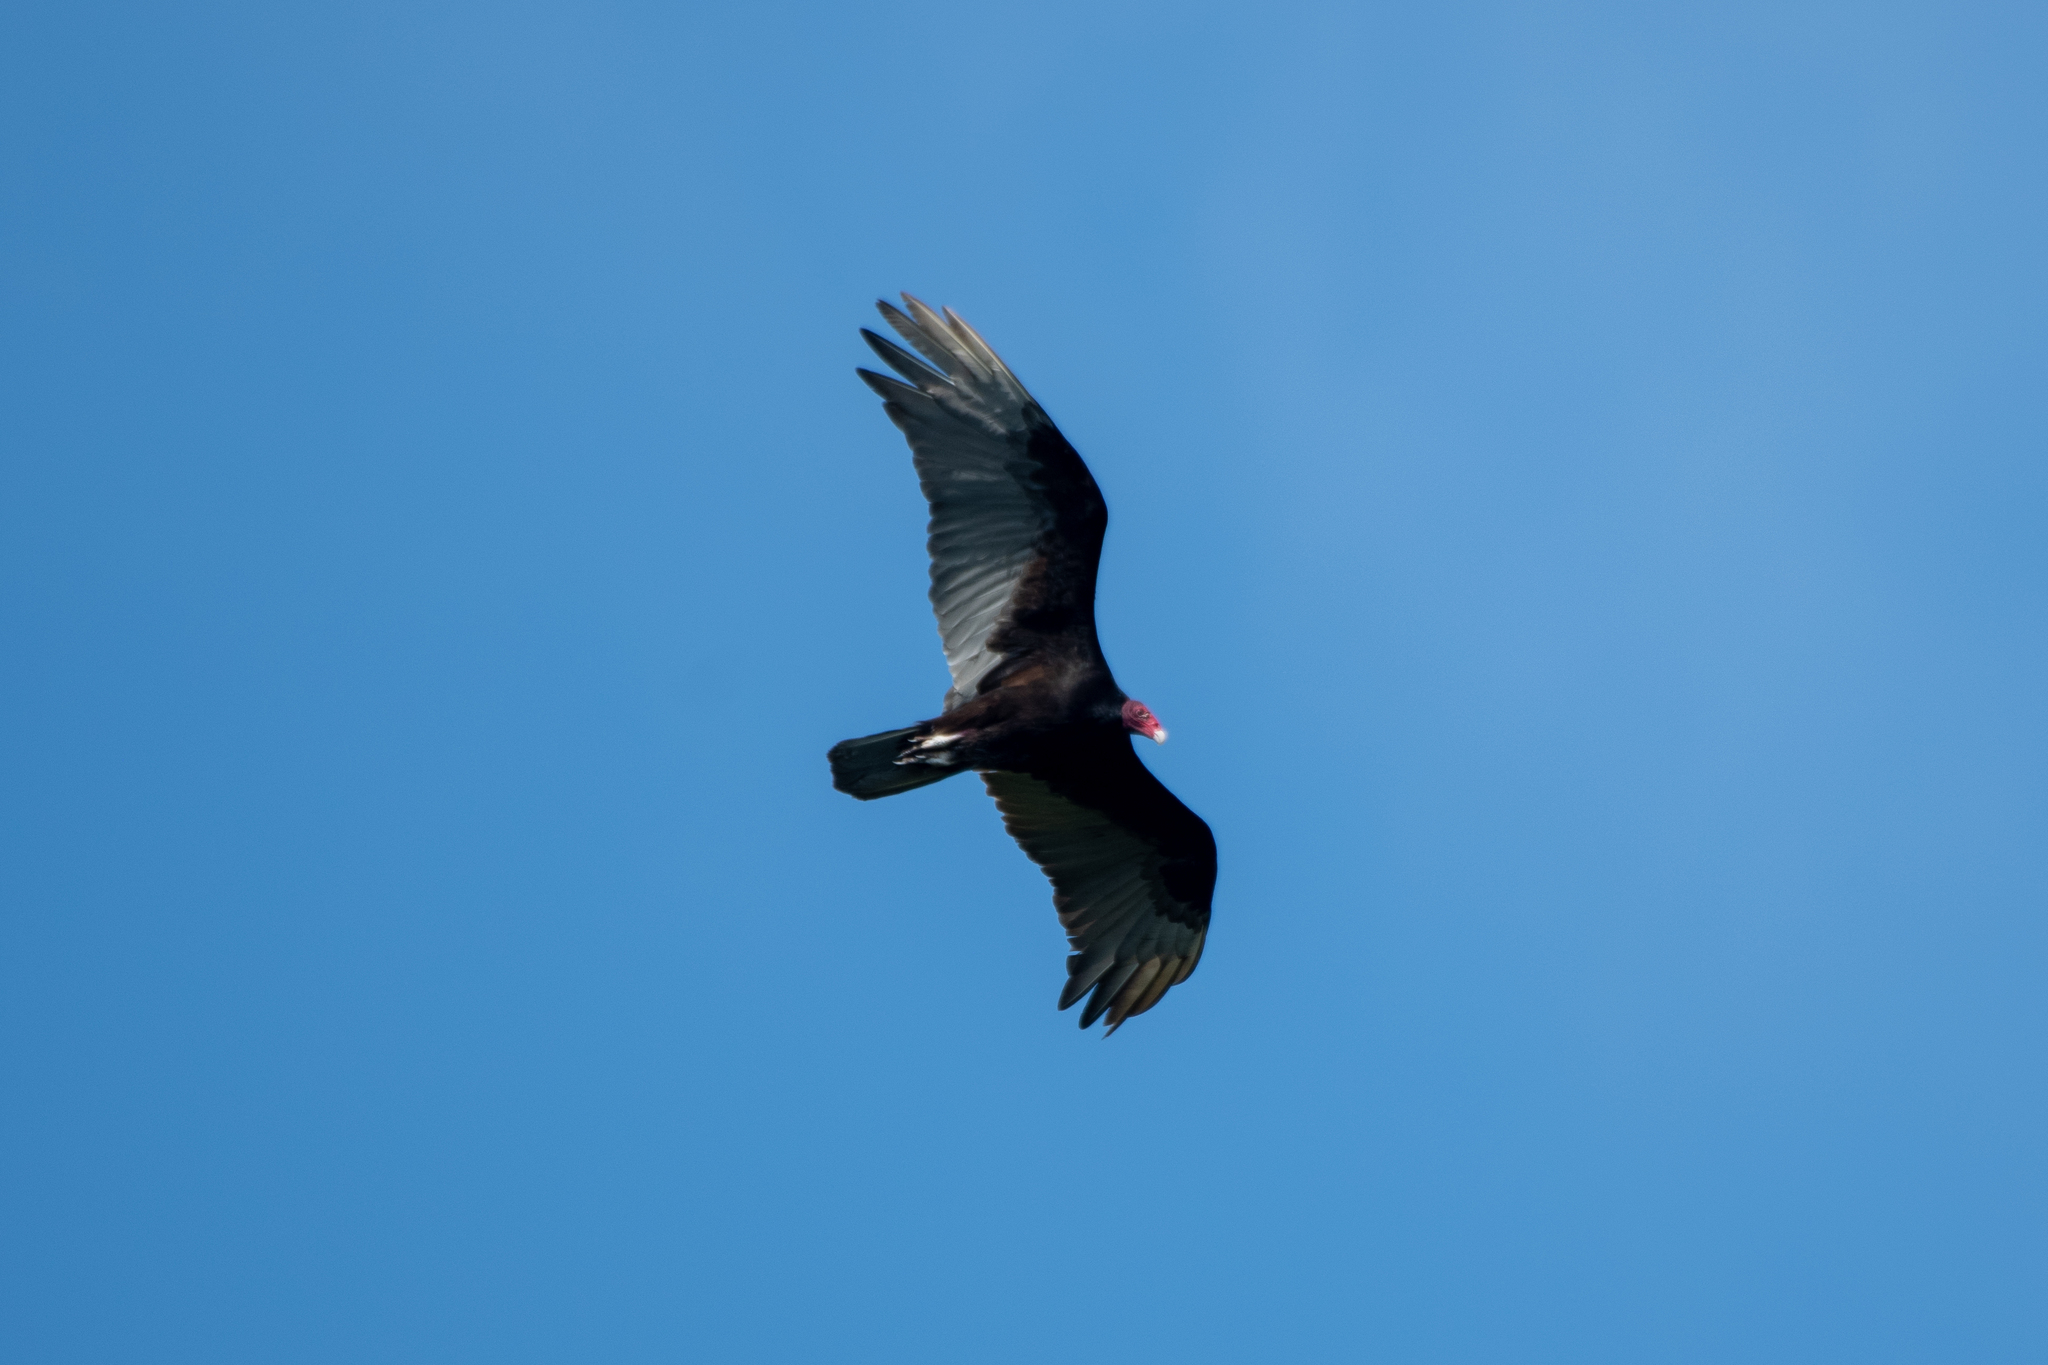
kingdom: Animalia
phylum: Chordata
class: Aves
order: Accipitriformes
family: Cathartidae
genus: Cathartes
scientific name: Cathartes aura
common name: Turkey vulture
